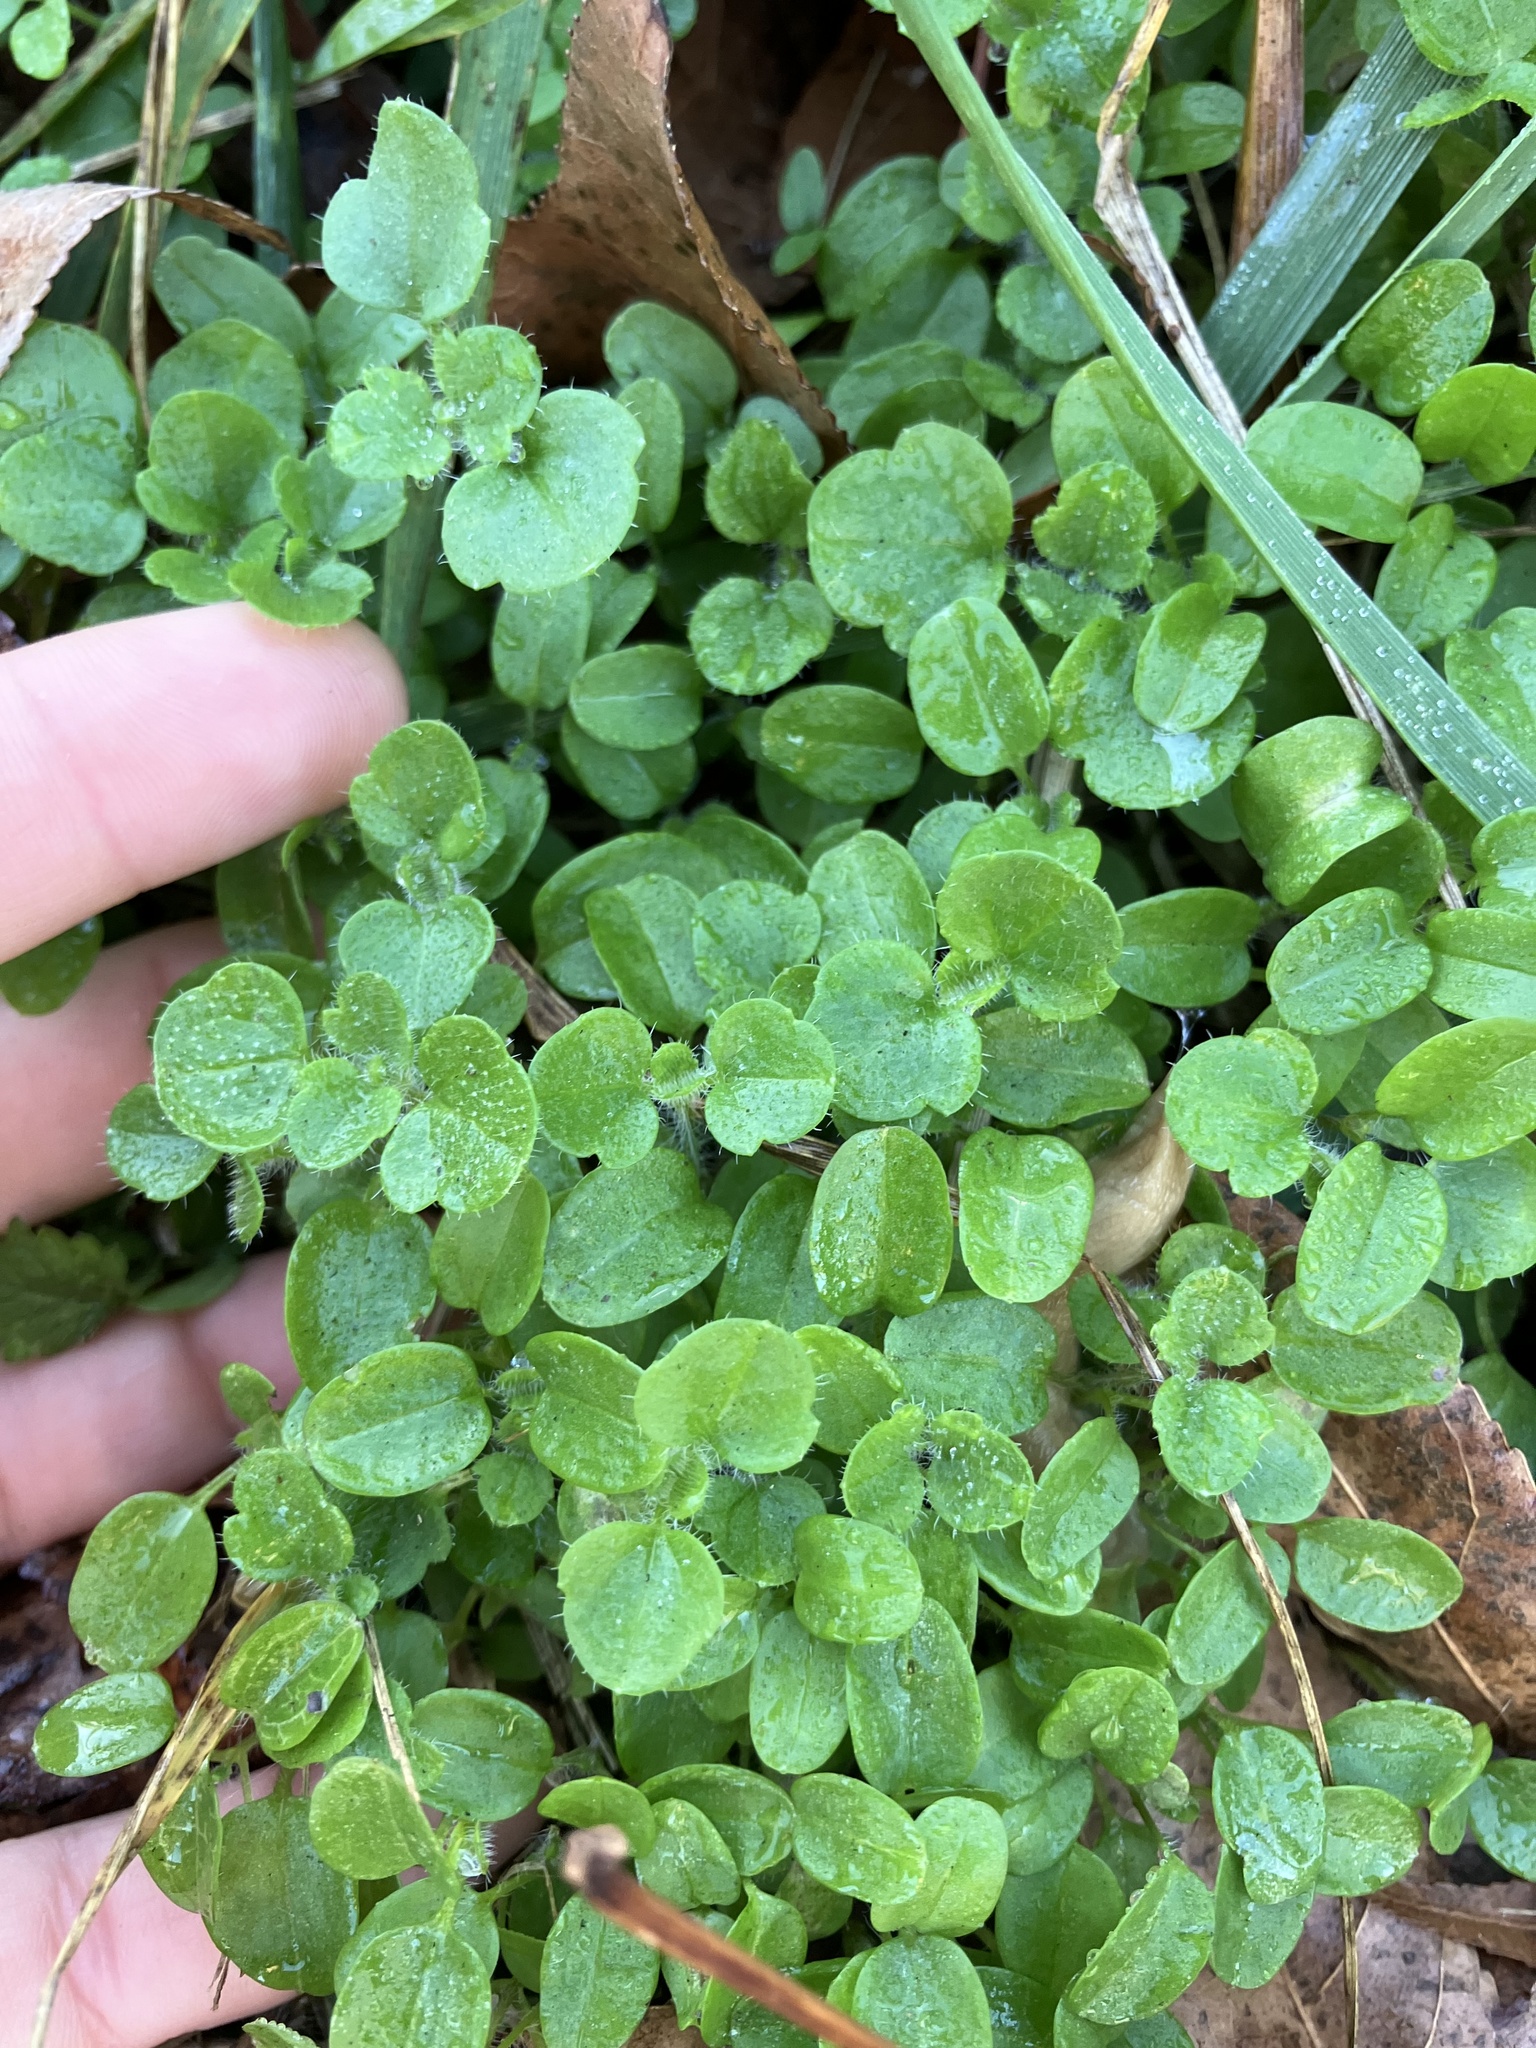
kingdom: Plantae
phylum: Tracheophyta
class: Magnoliopsida
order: Lamiales
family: Plantaginaceae
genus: Veronica
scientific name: Veronica hederifolia
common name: Ivy-leaved speedwell
